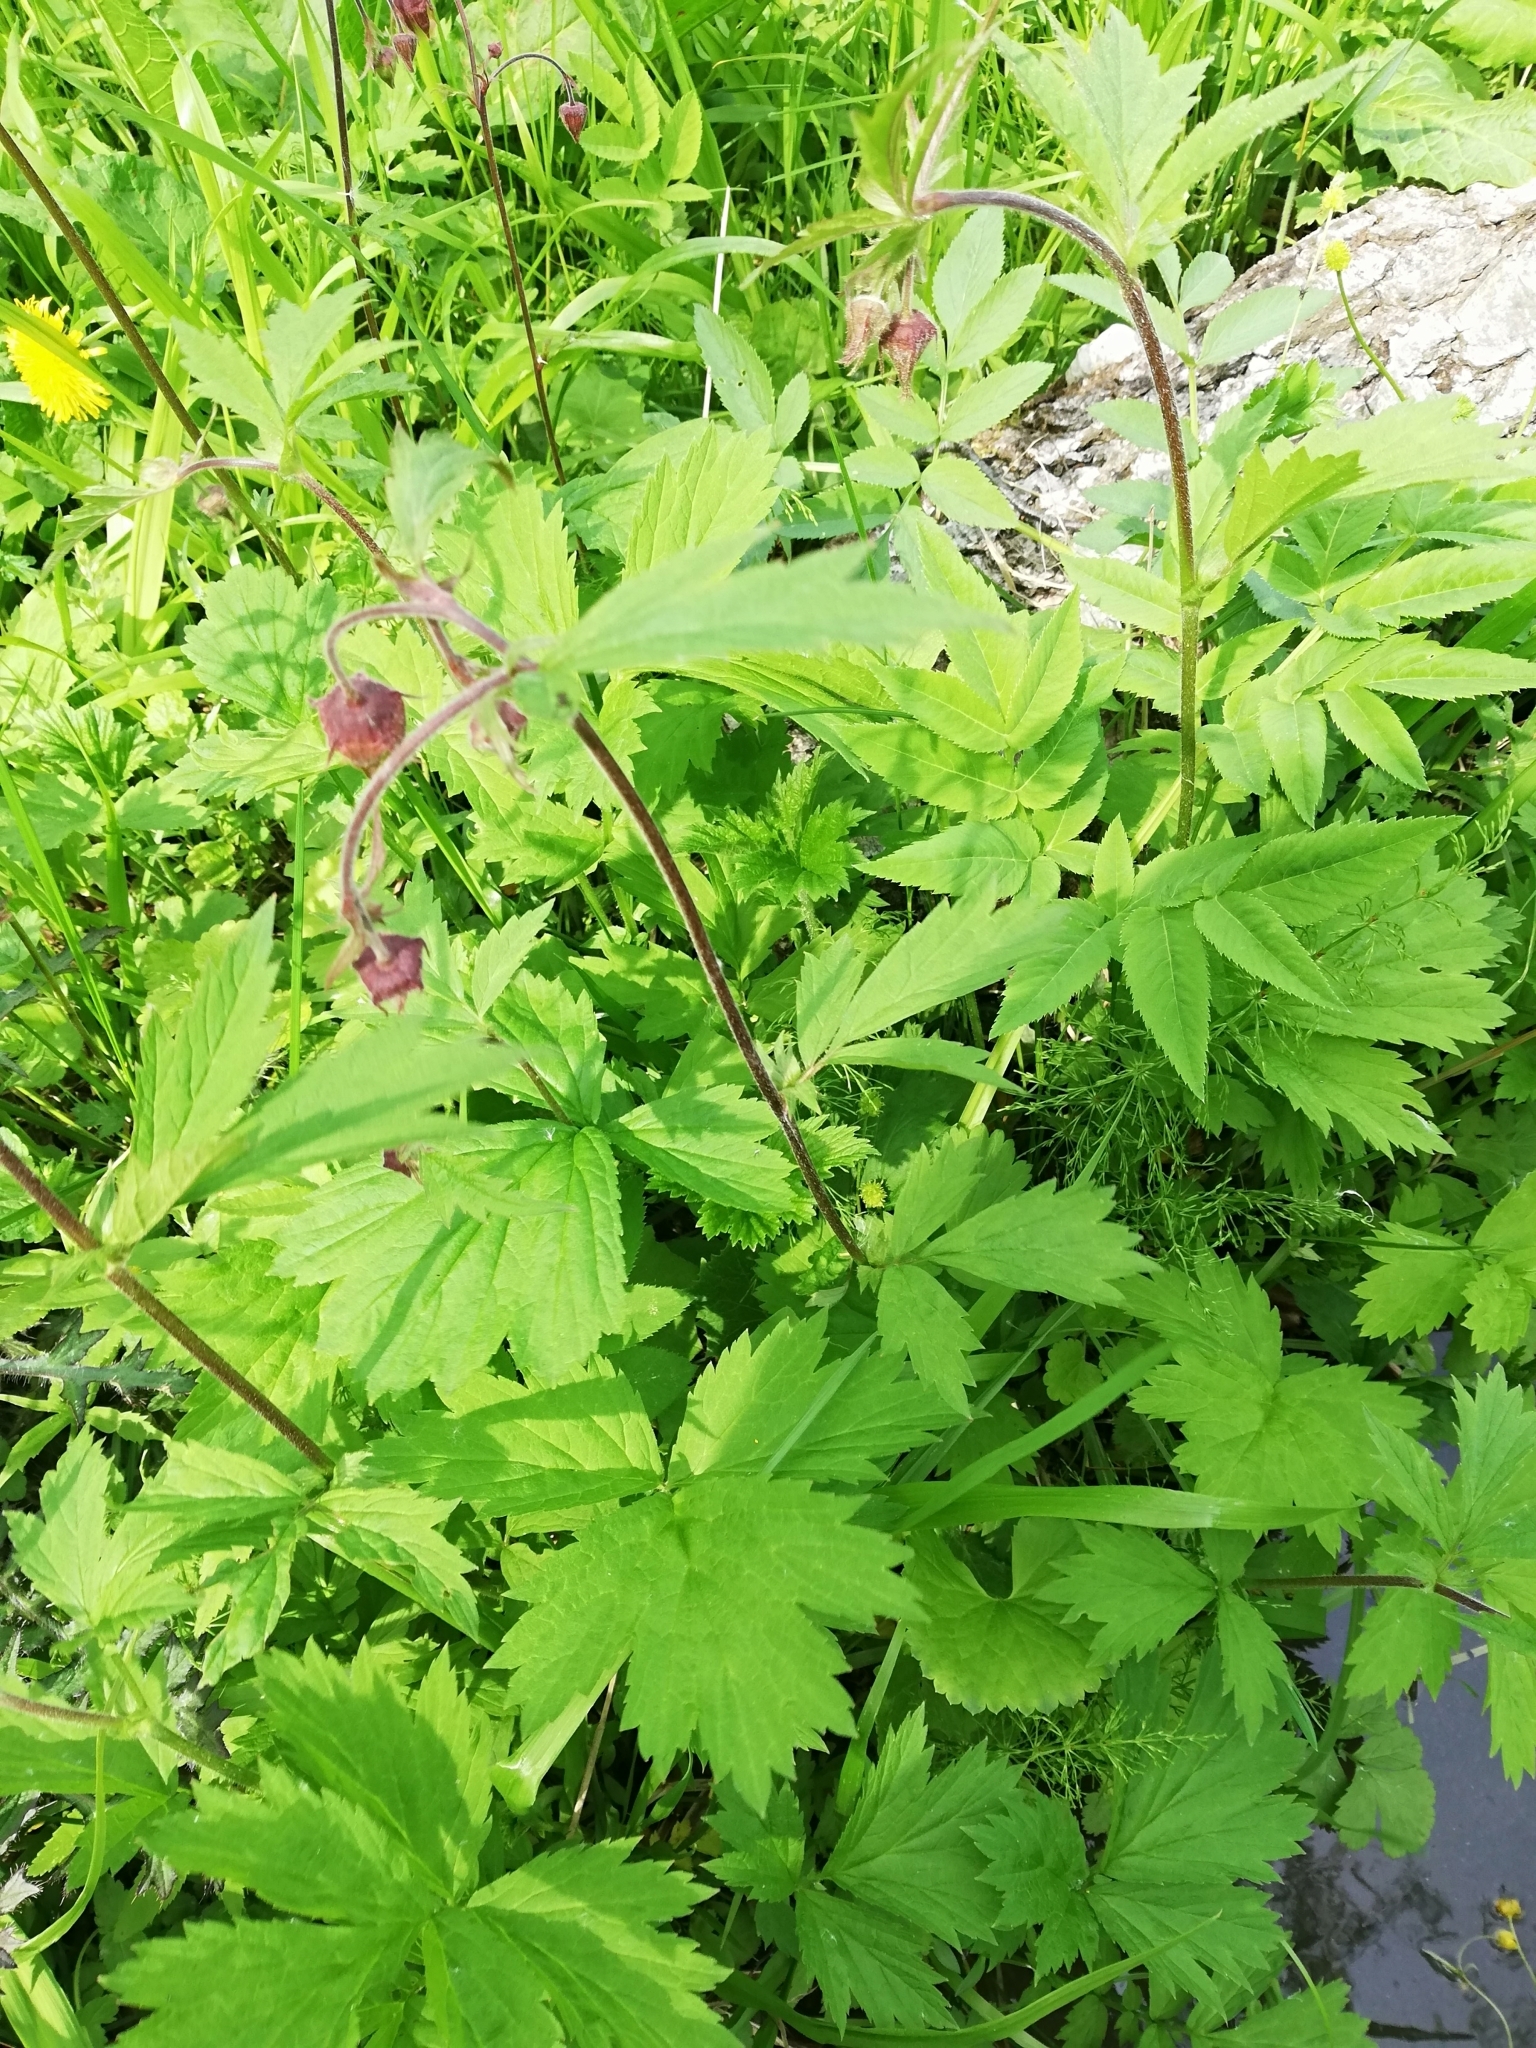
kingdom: Plantae
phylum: Tracheophyta
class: Magnoliopsida
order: Rosales
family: Rosaceae
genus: Geum
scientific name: Geum rivale
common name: Water avens
